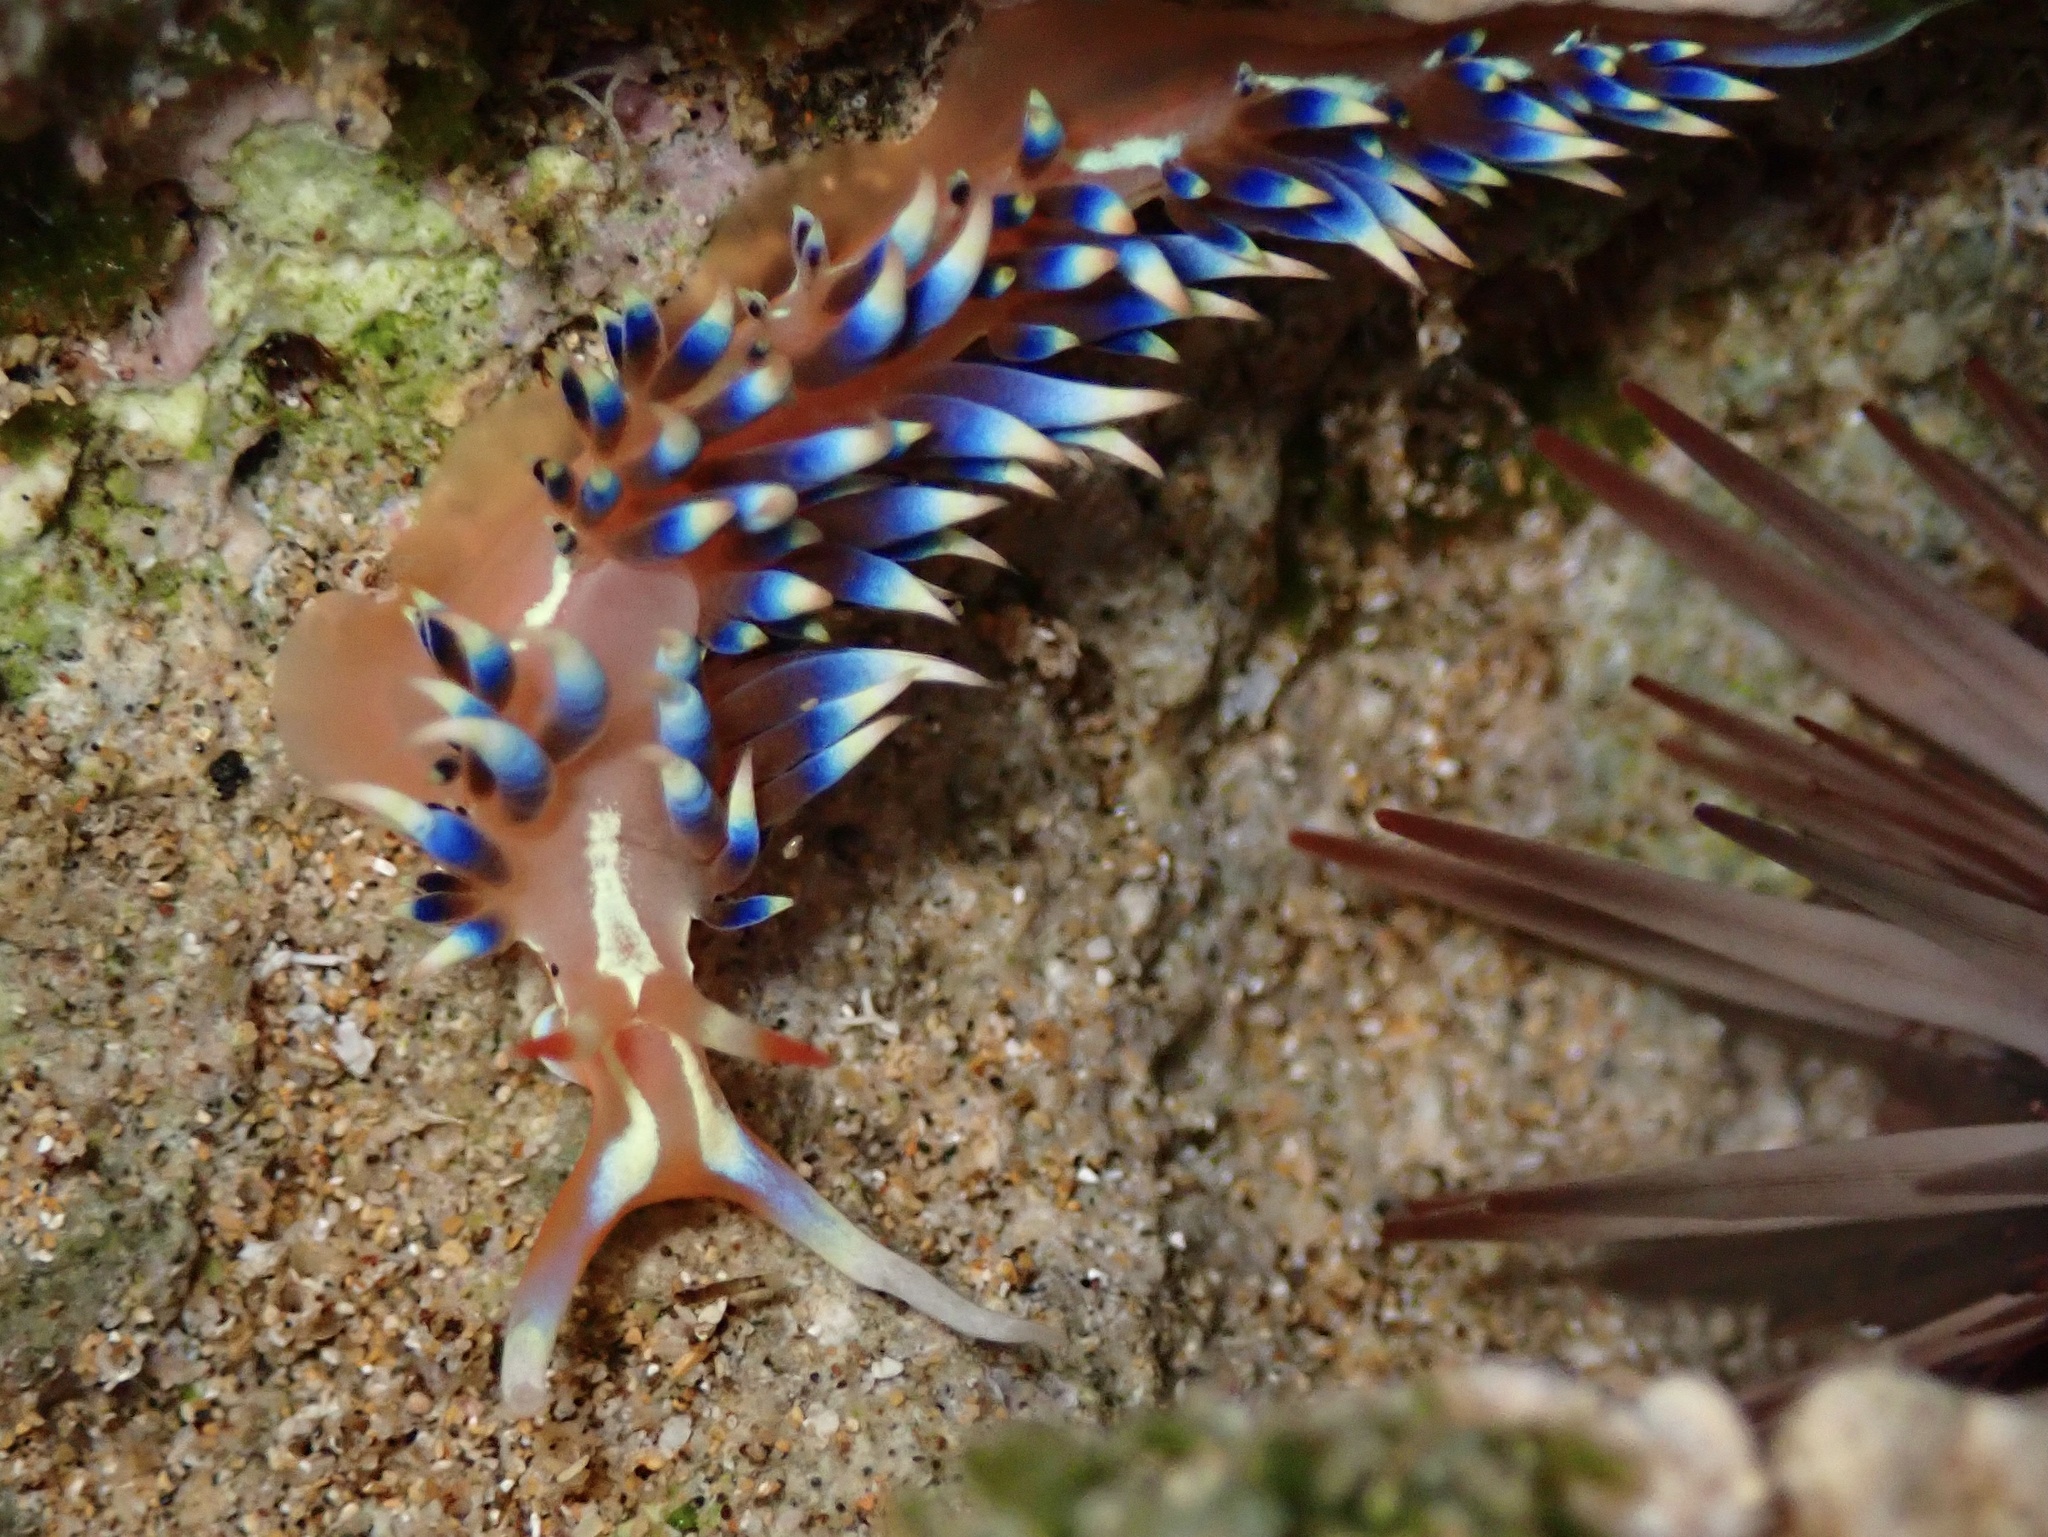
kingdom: Animalia
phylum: Mollusca
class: Gastropoda
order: Nudibranchia
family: Facelinidae
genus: Caloria
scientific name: Caloria indica
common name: Sea slug
